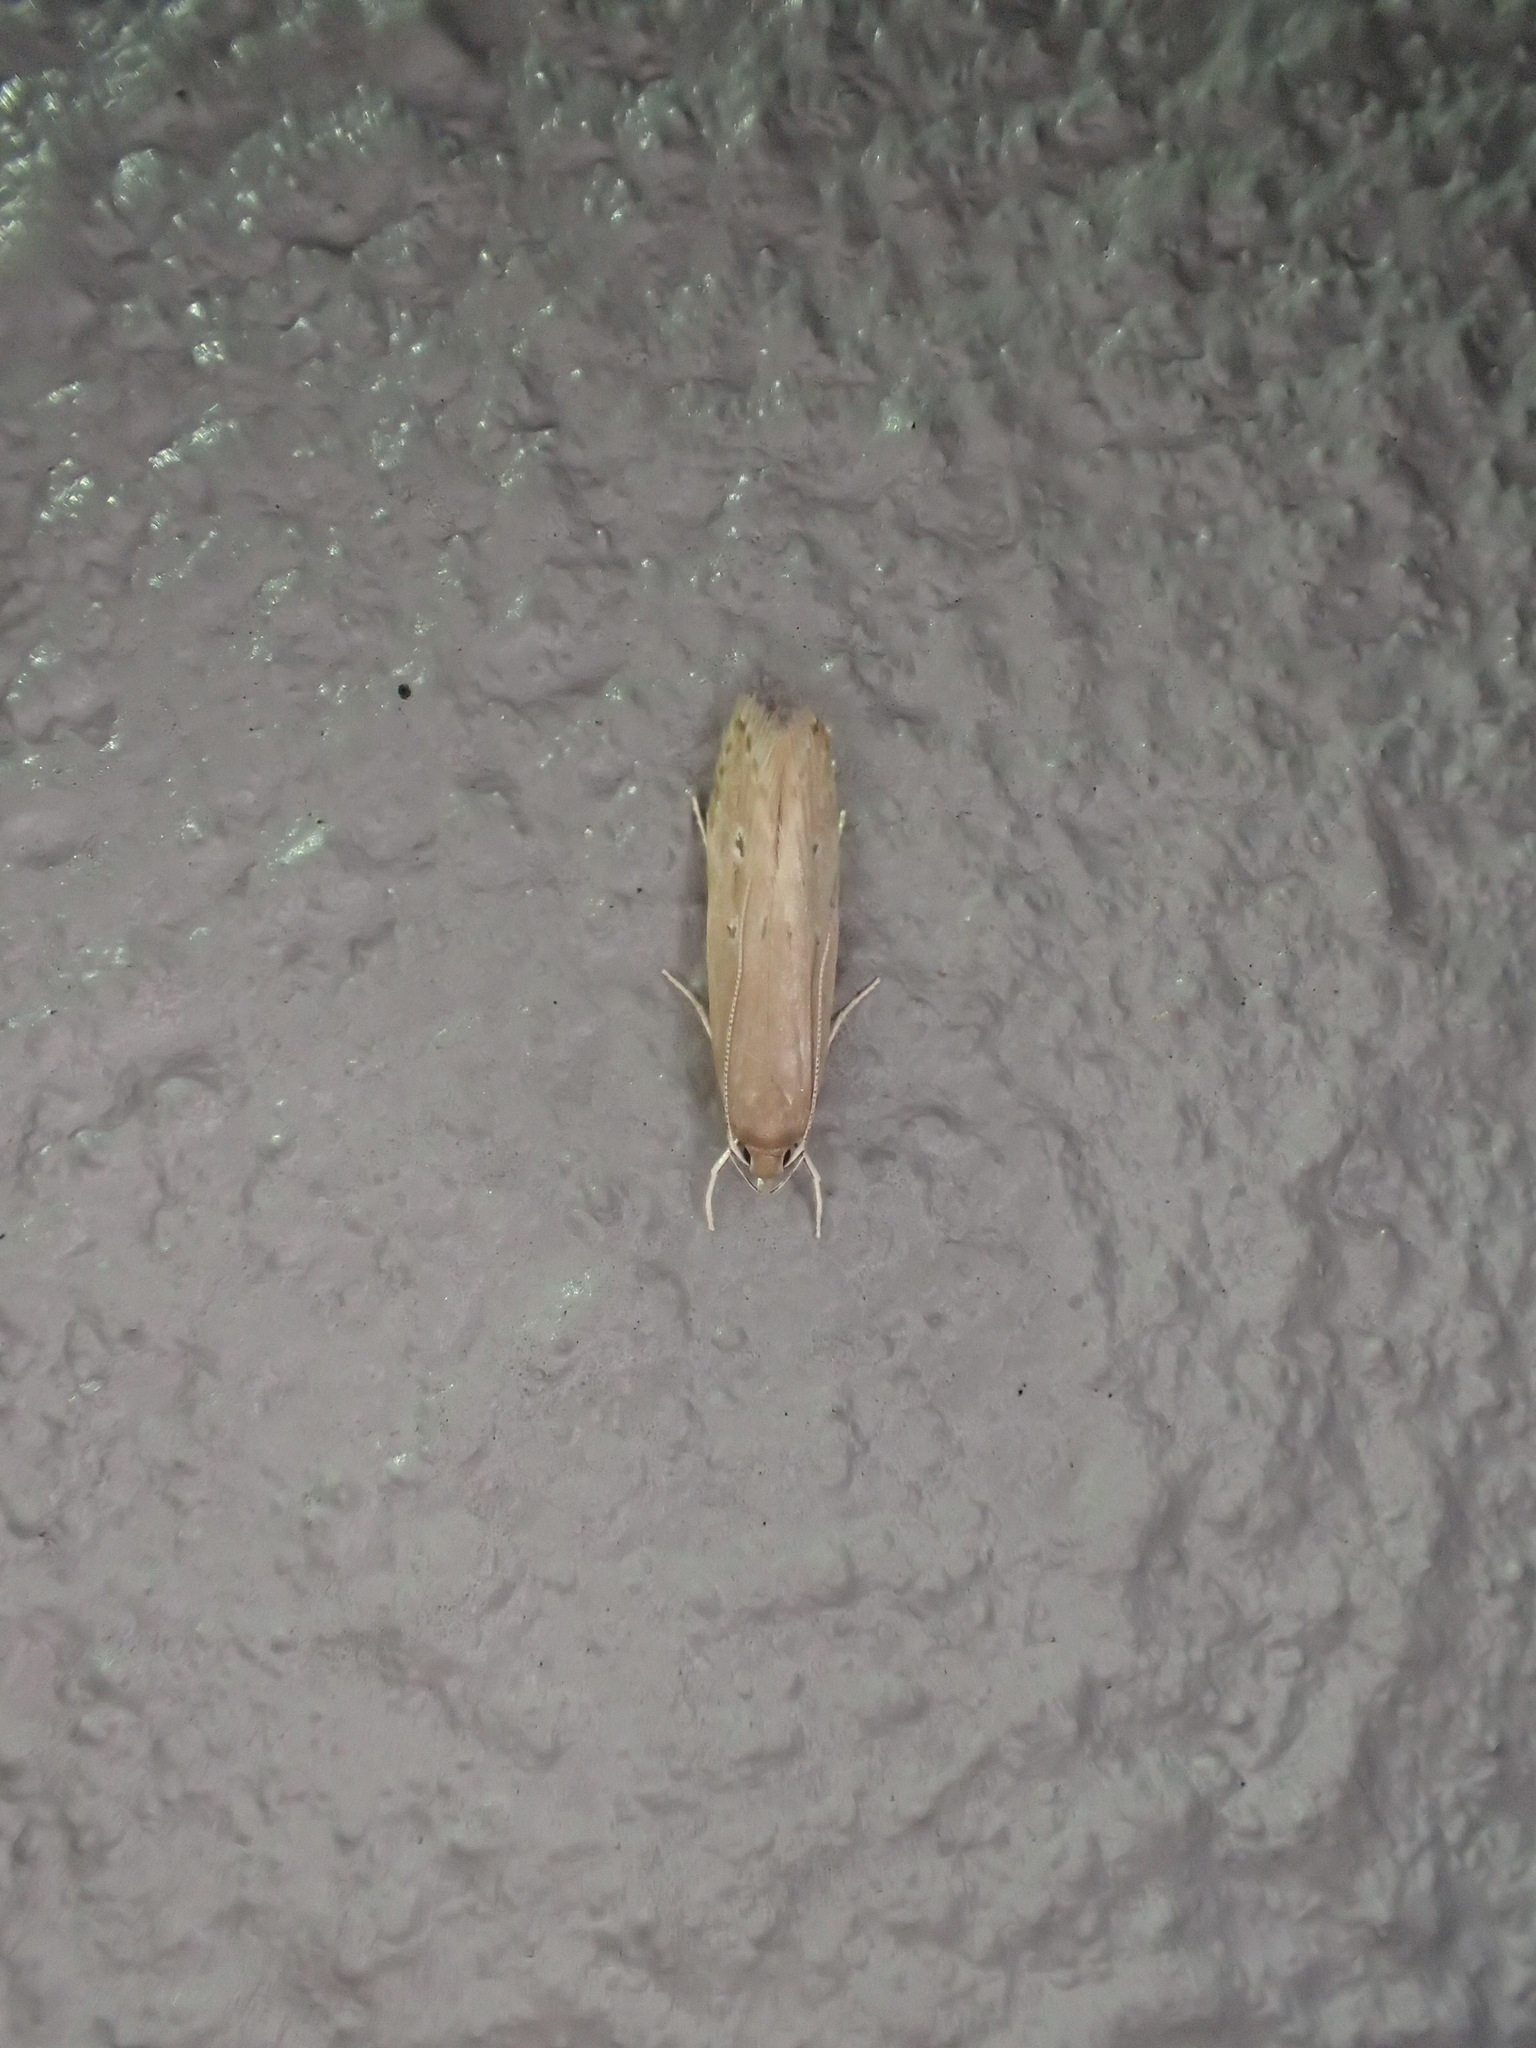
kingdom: Animalia
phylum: Arthropoda
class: Insecta
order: Lepidoptera
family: Cosmopterigidae
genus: Limnaecia
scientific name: Limnaecia phragmitella
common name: Bulrush cosmet
